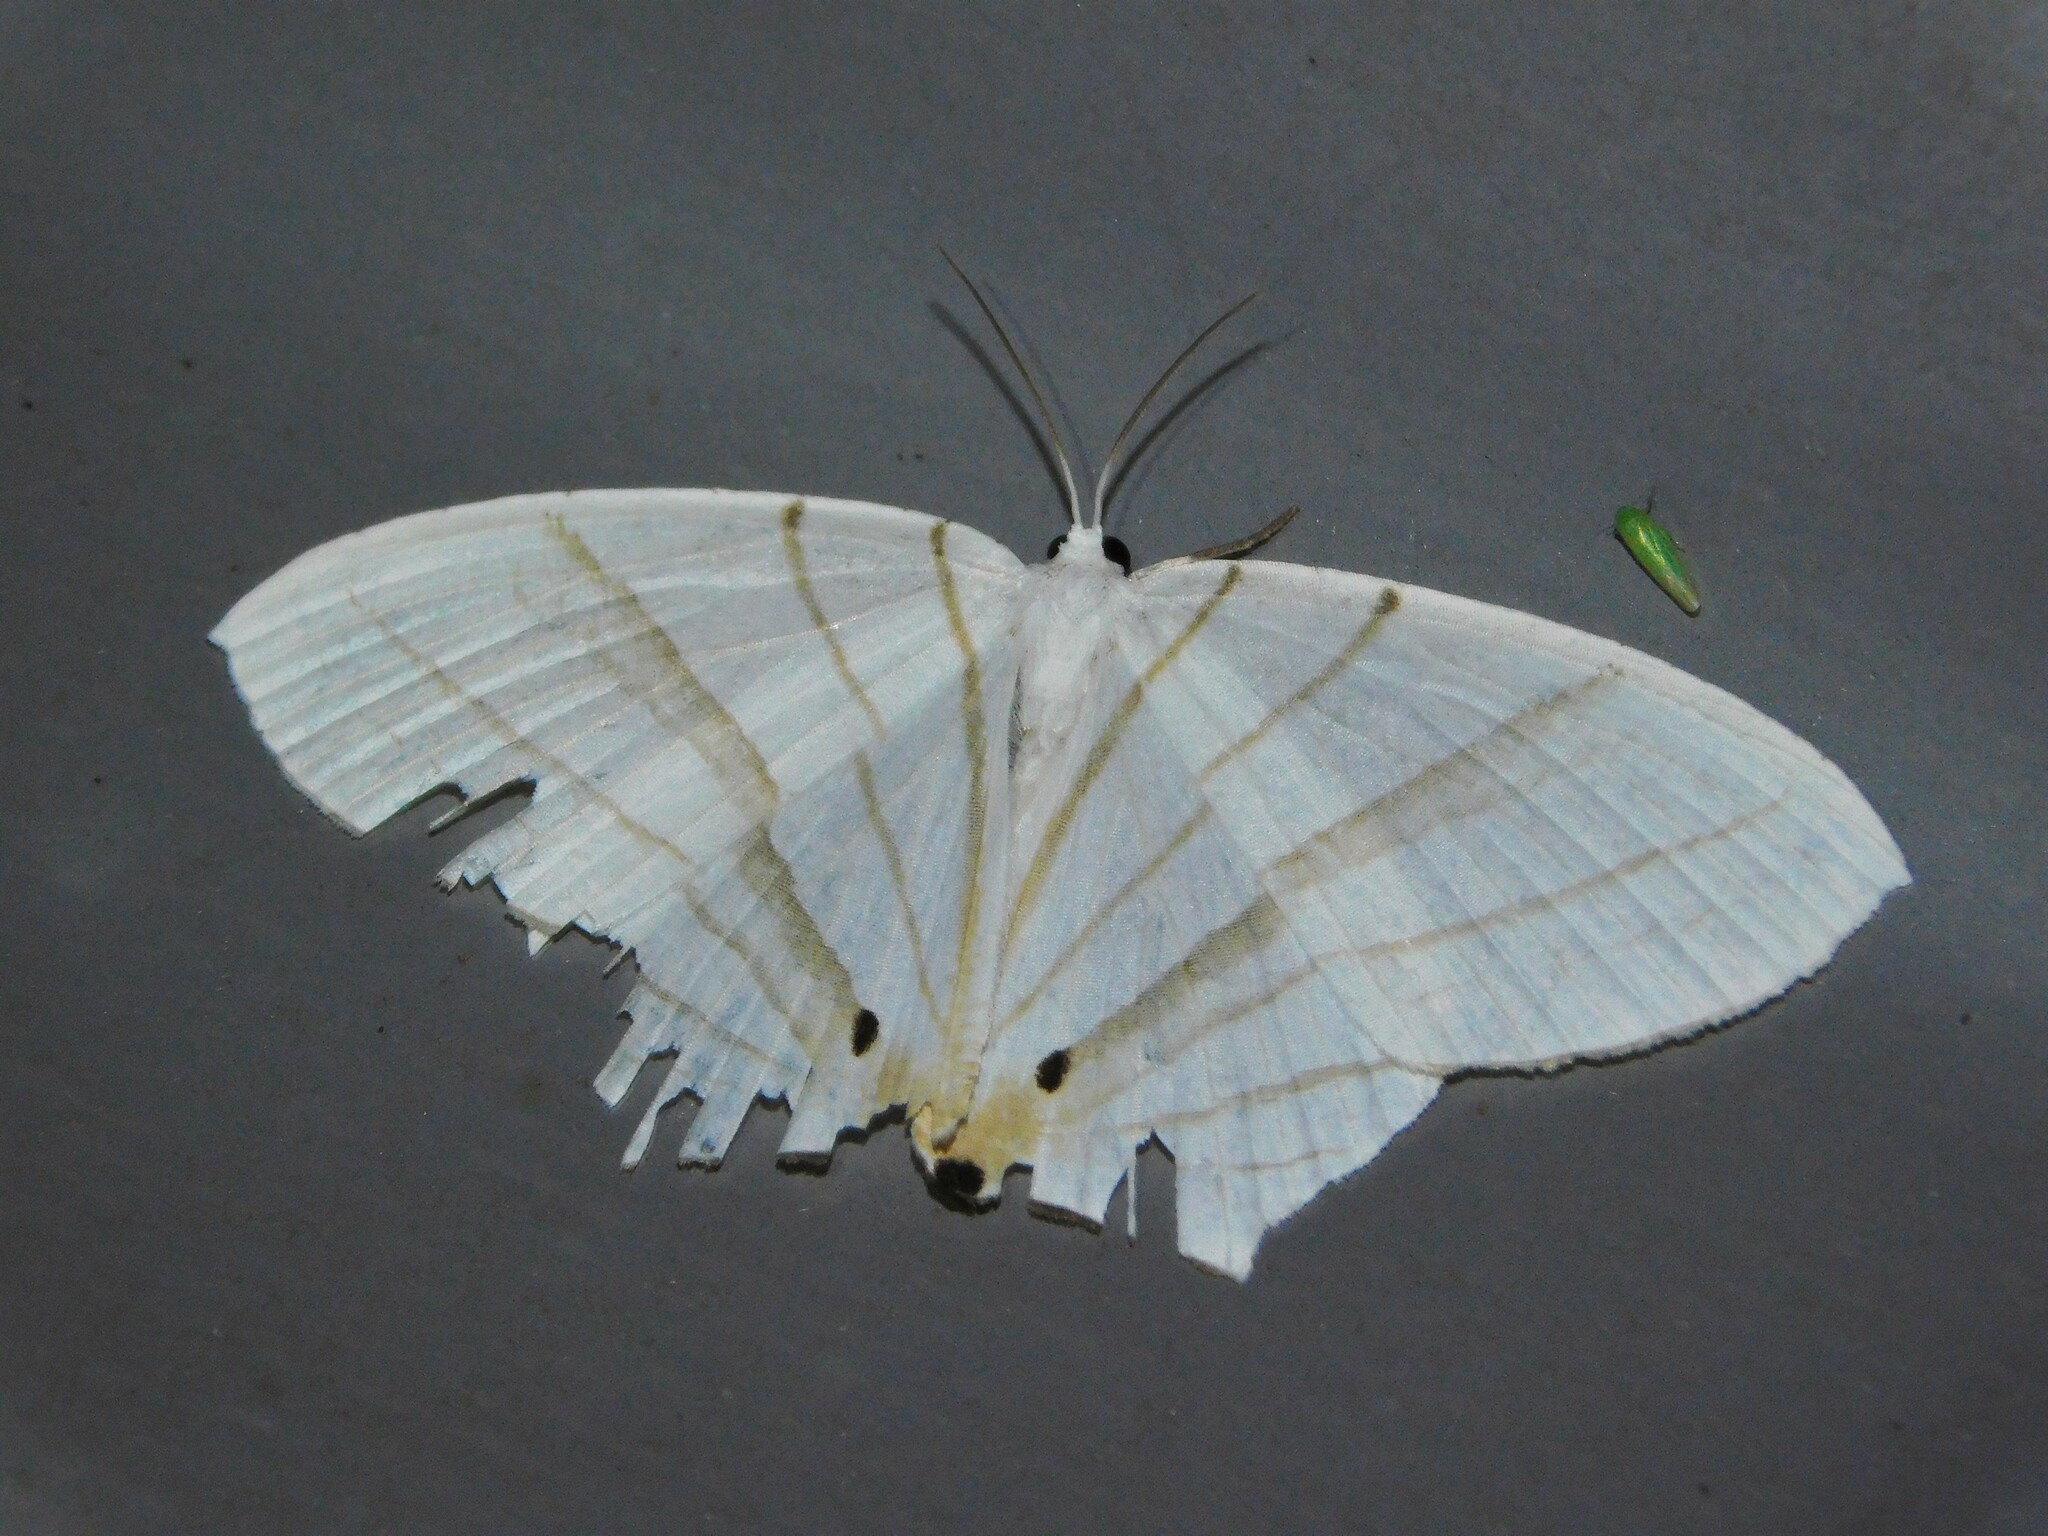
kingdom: Animalia
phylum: Arthropoda
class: Insecta
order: Lepidoptera
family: Uraniidae
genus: Dissoprumna
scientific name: Dissoprumna erycinaria
